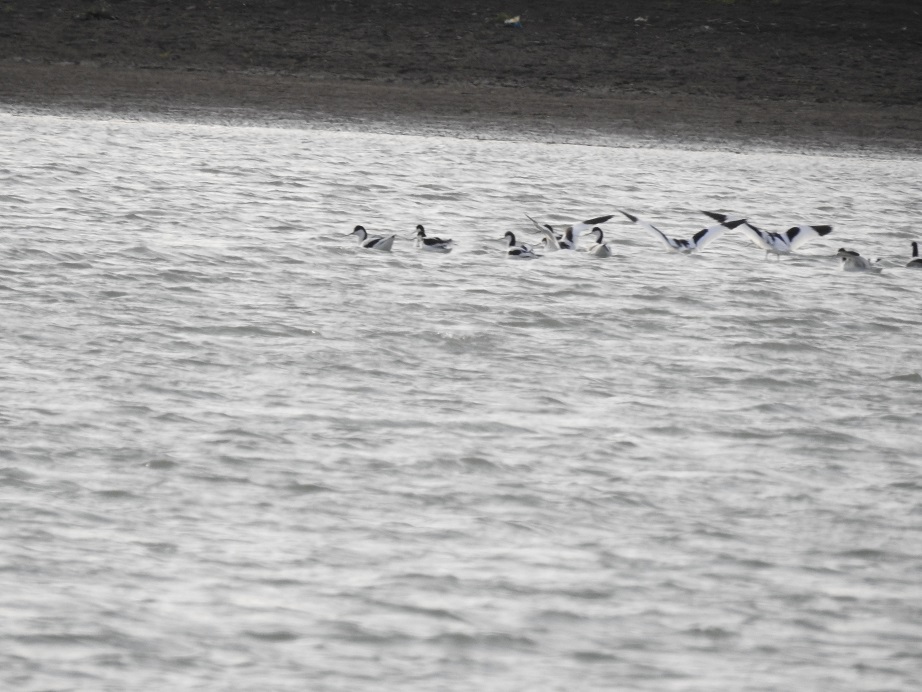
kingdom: Animalia
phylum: Chordata
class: Aves
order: Charadriiformes
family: Recurvirostridae
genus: Recurvirostra
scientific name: Recurvirostra avosetta
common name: Pied avocet
